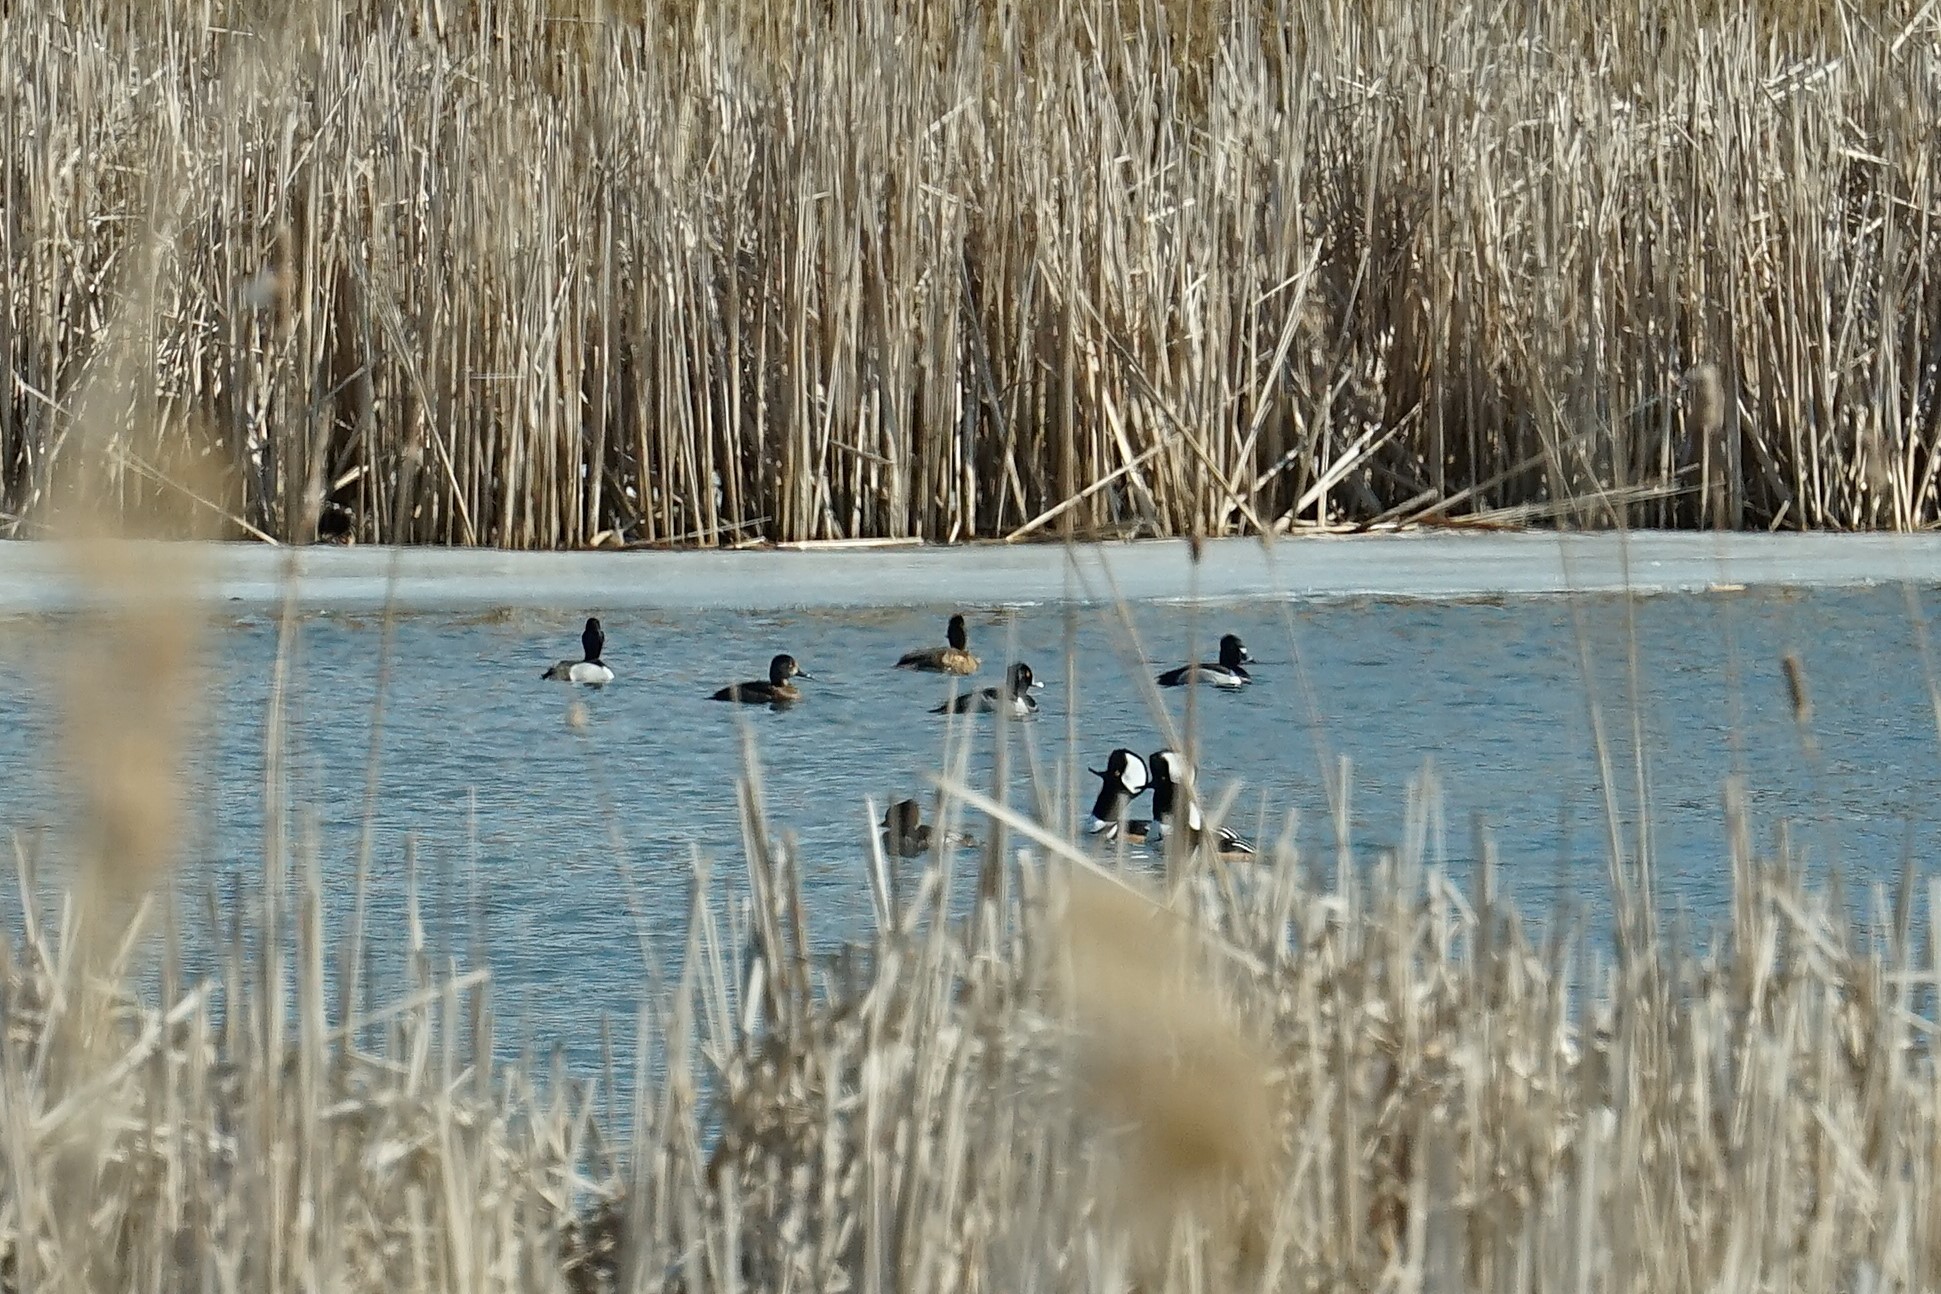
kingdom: Animalia
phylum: Chordata
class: Aves
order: Anseriformes
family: Anatidae
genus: Aythya
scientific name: Aythya collaris
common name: Ring-necked duck
